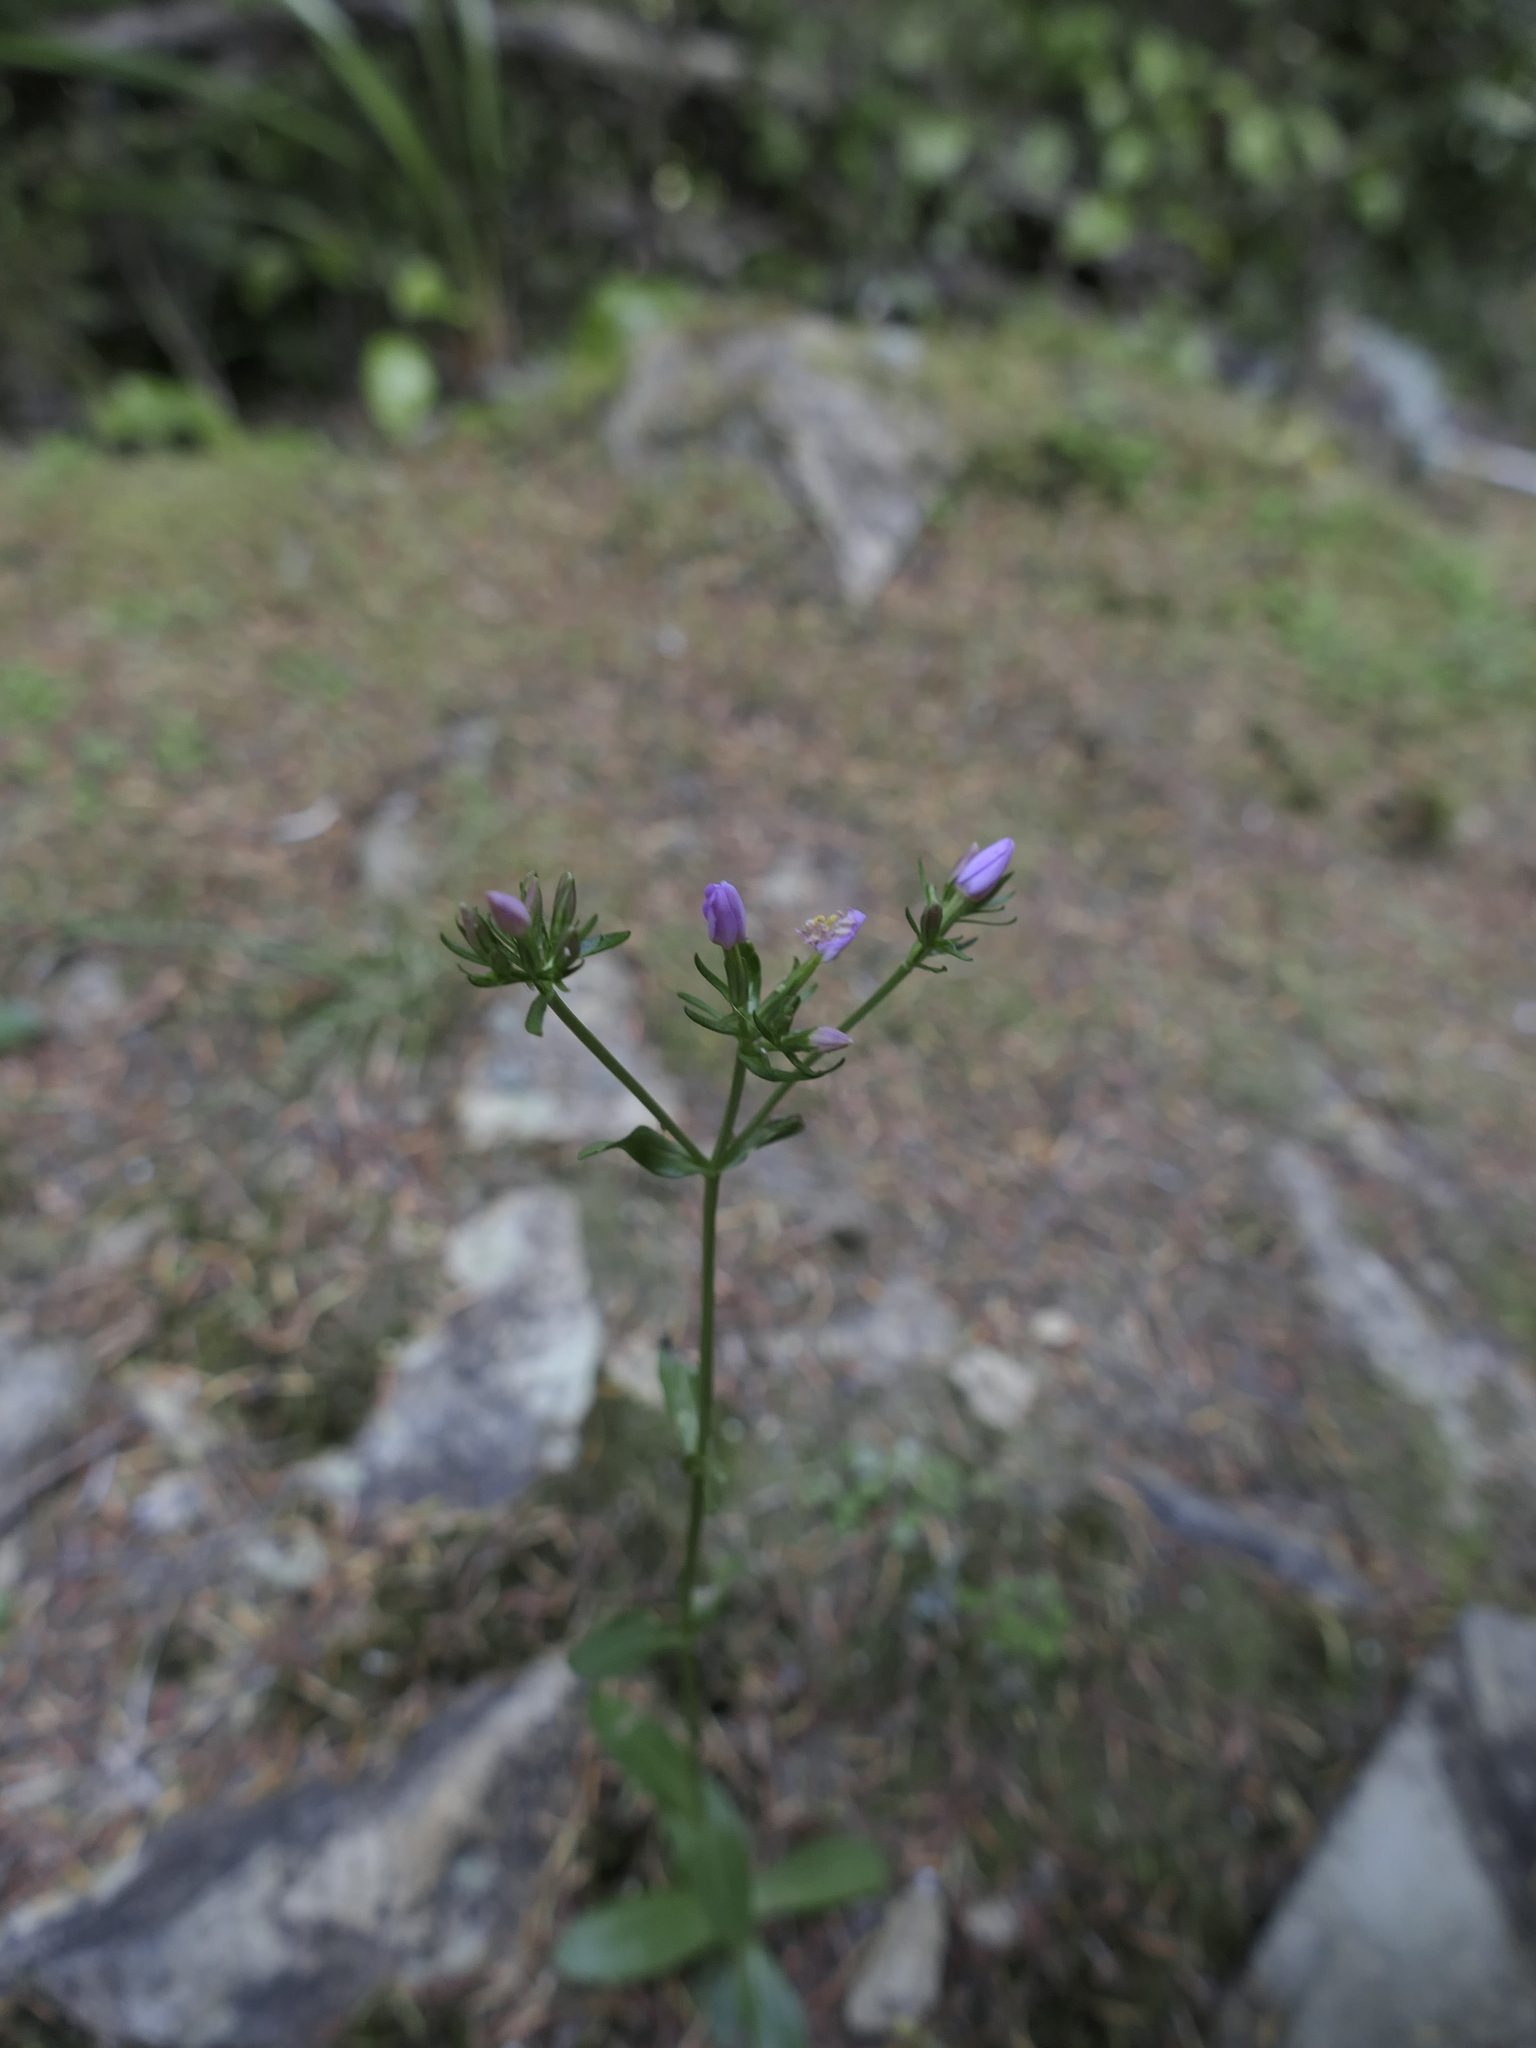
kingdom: Plantae
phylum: Tracheophyta
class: Magnoliopsida
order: Gentianales
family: Gentianaceae
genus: Centaurium
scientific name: Centaurium erythraea
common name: Common centaury
